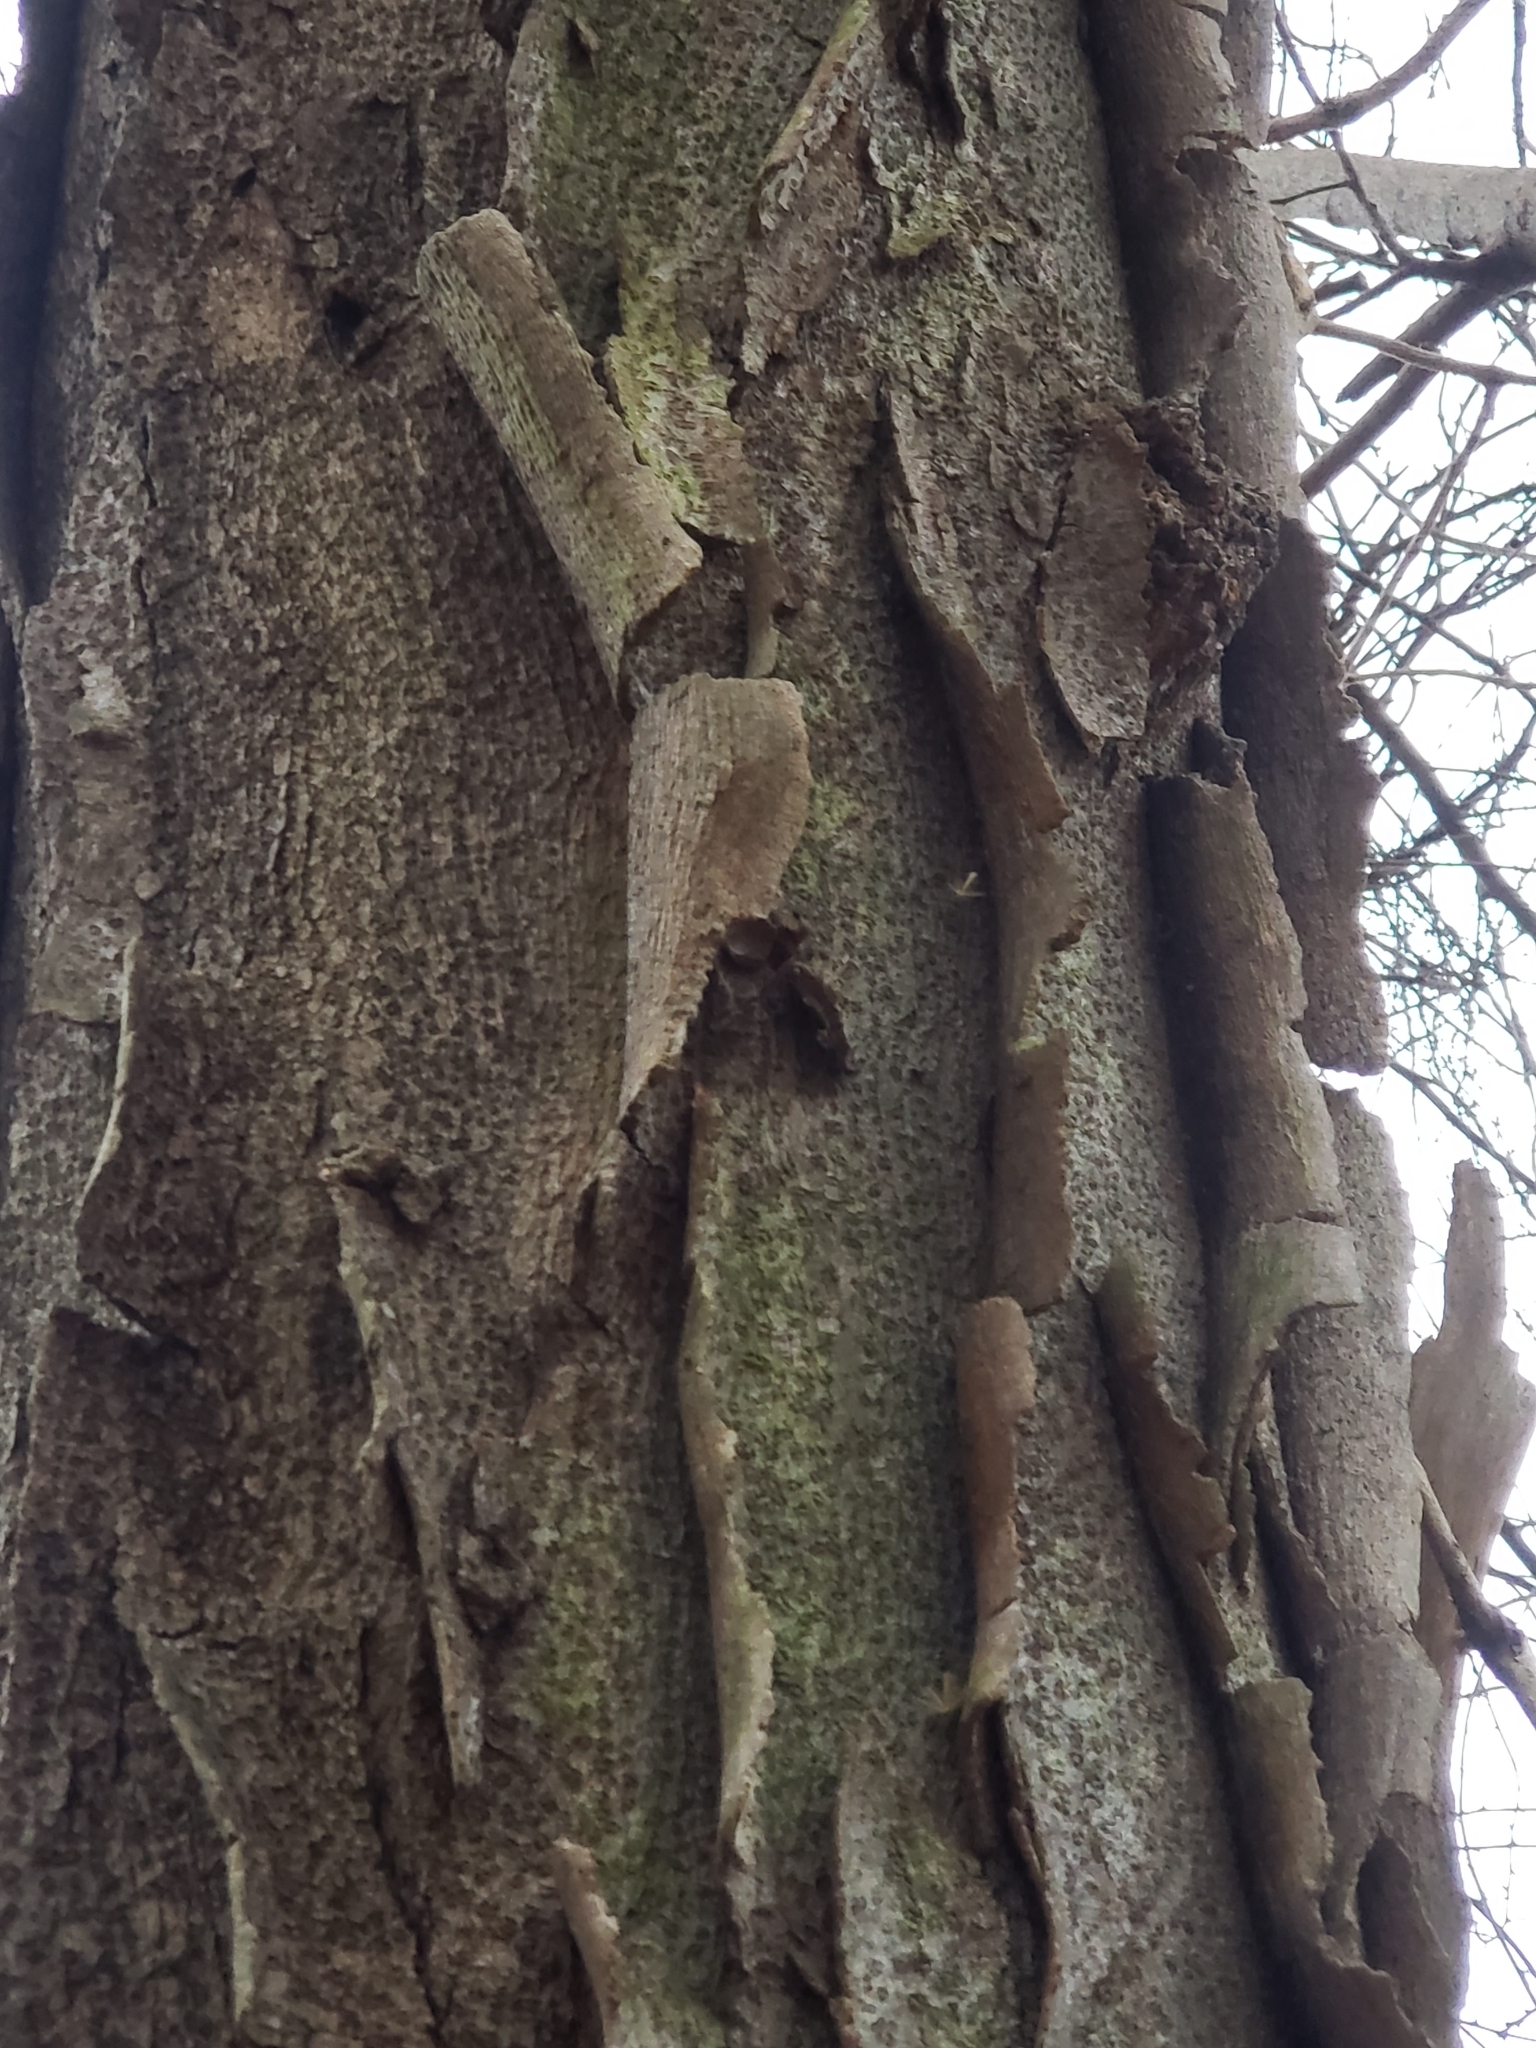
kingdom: Plantae
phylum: Tracheophyta
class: Magnoliopsida
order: Fabales
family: Fabaceae
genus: Gleditsia
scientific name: Gleditsia triacanthos
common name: Common honeylocust
